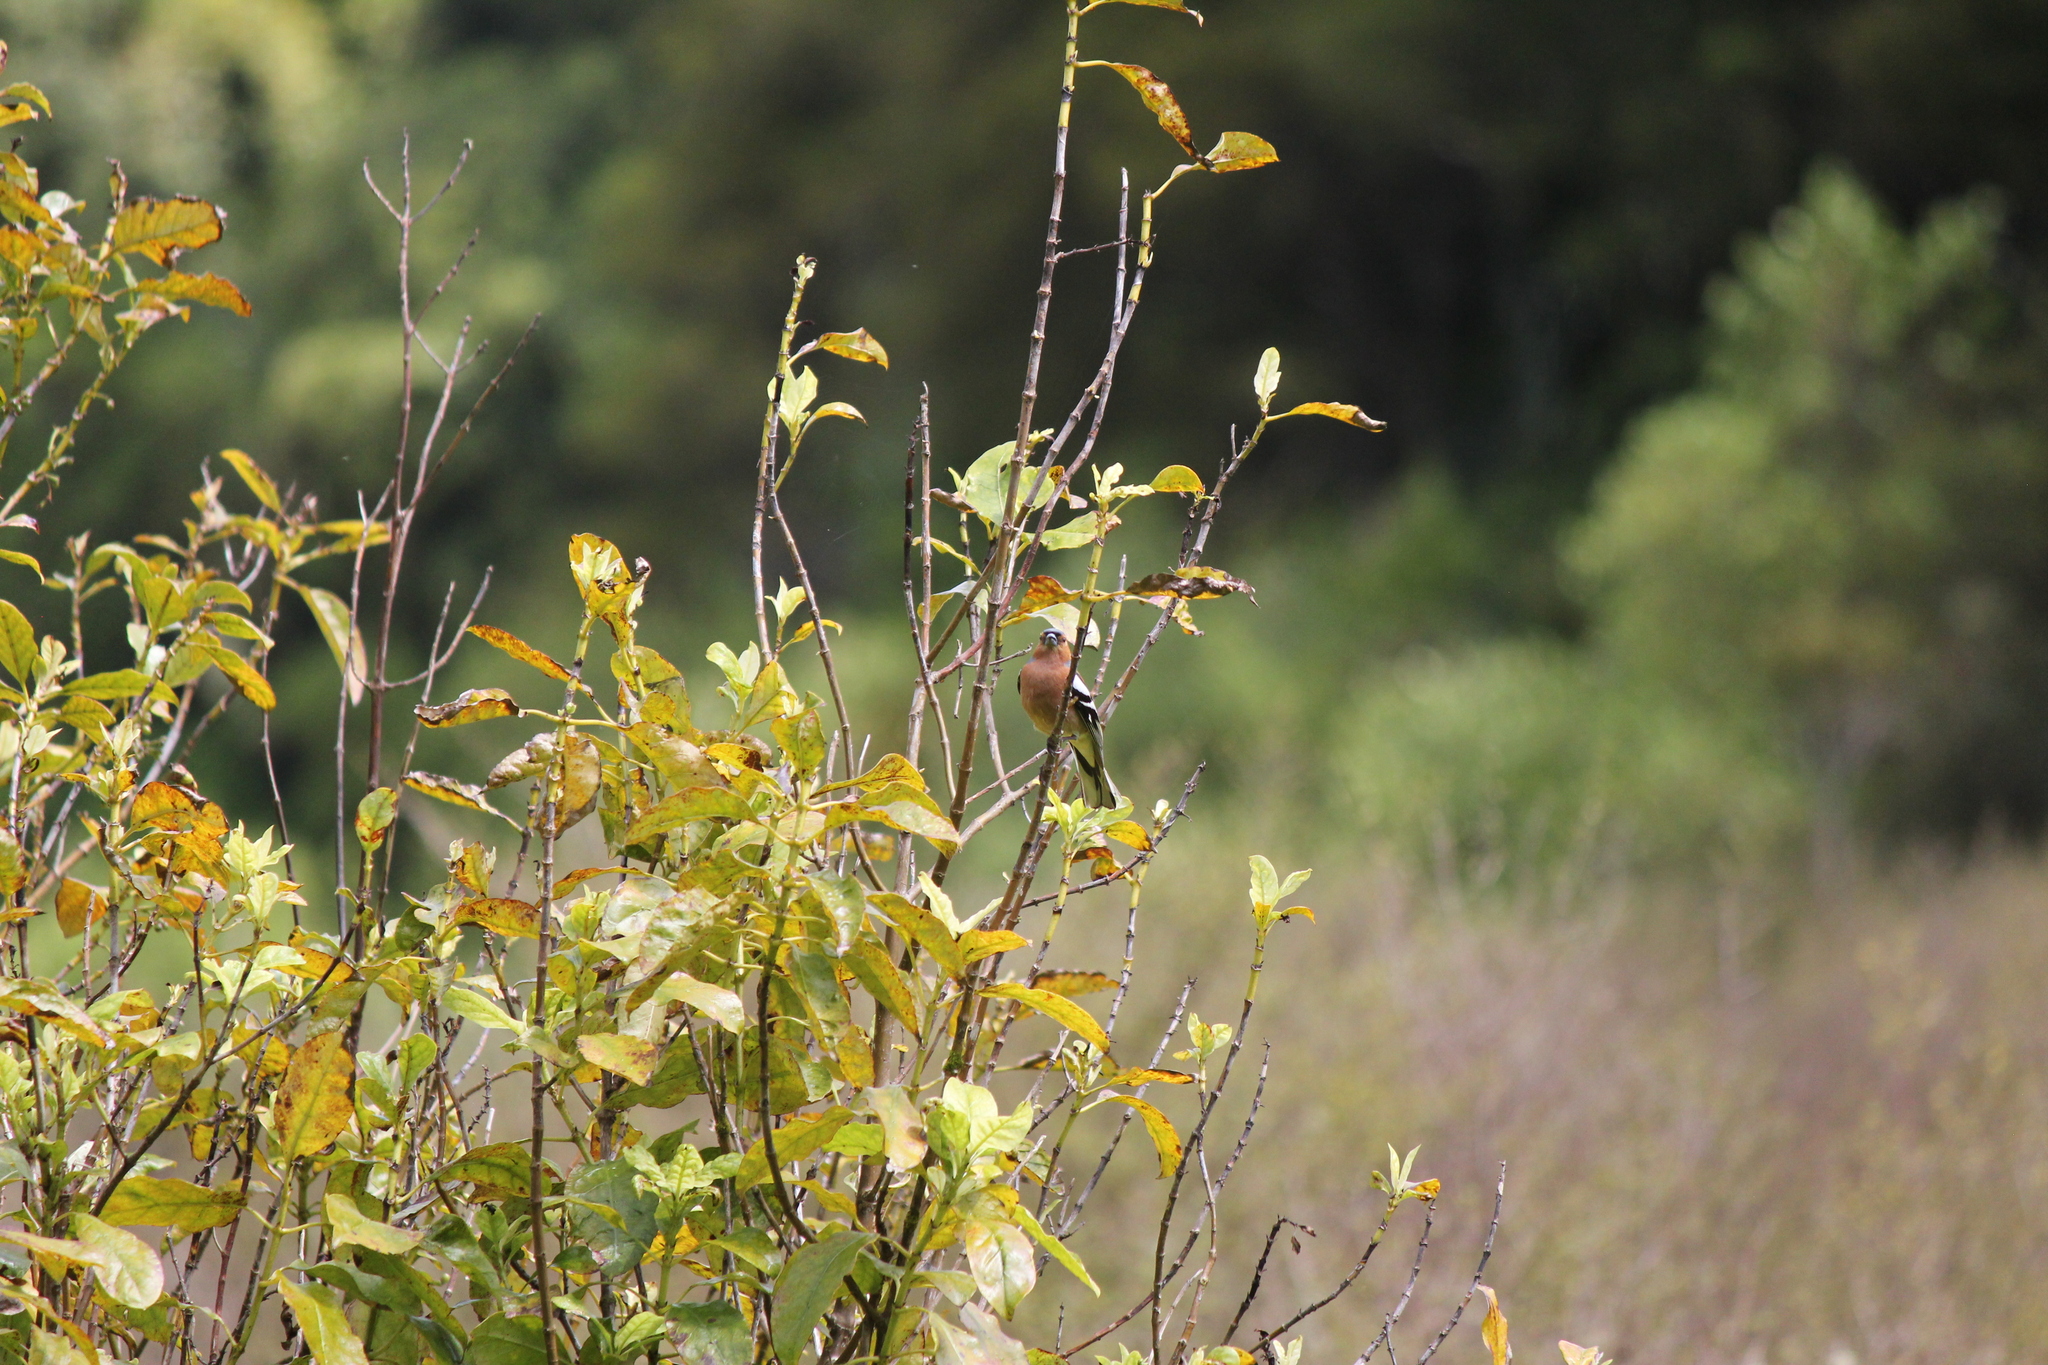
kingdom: Animalia
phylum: Chordata
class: Aves
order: Passeriformes
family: Fringillidae
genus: Fringilla
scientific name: Fringilla coelebs
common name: Common chaffinch
